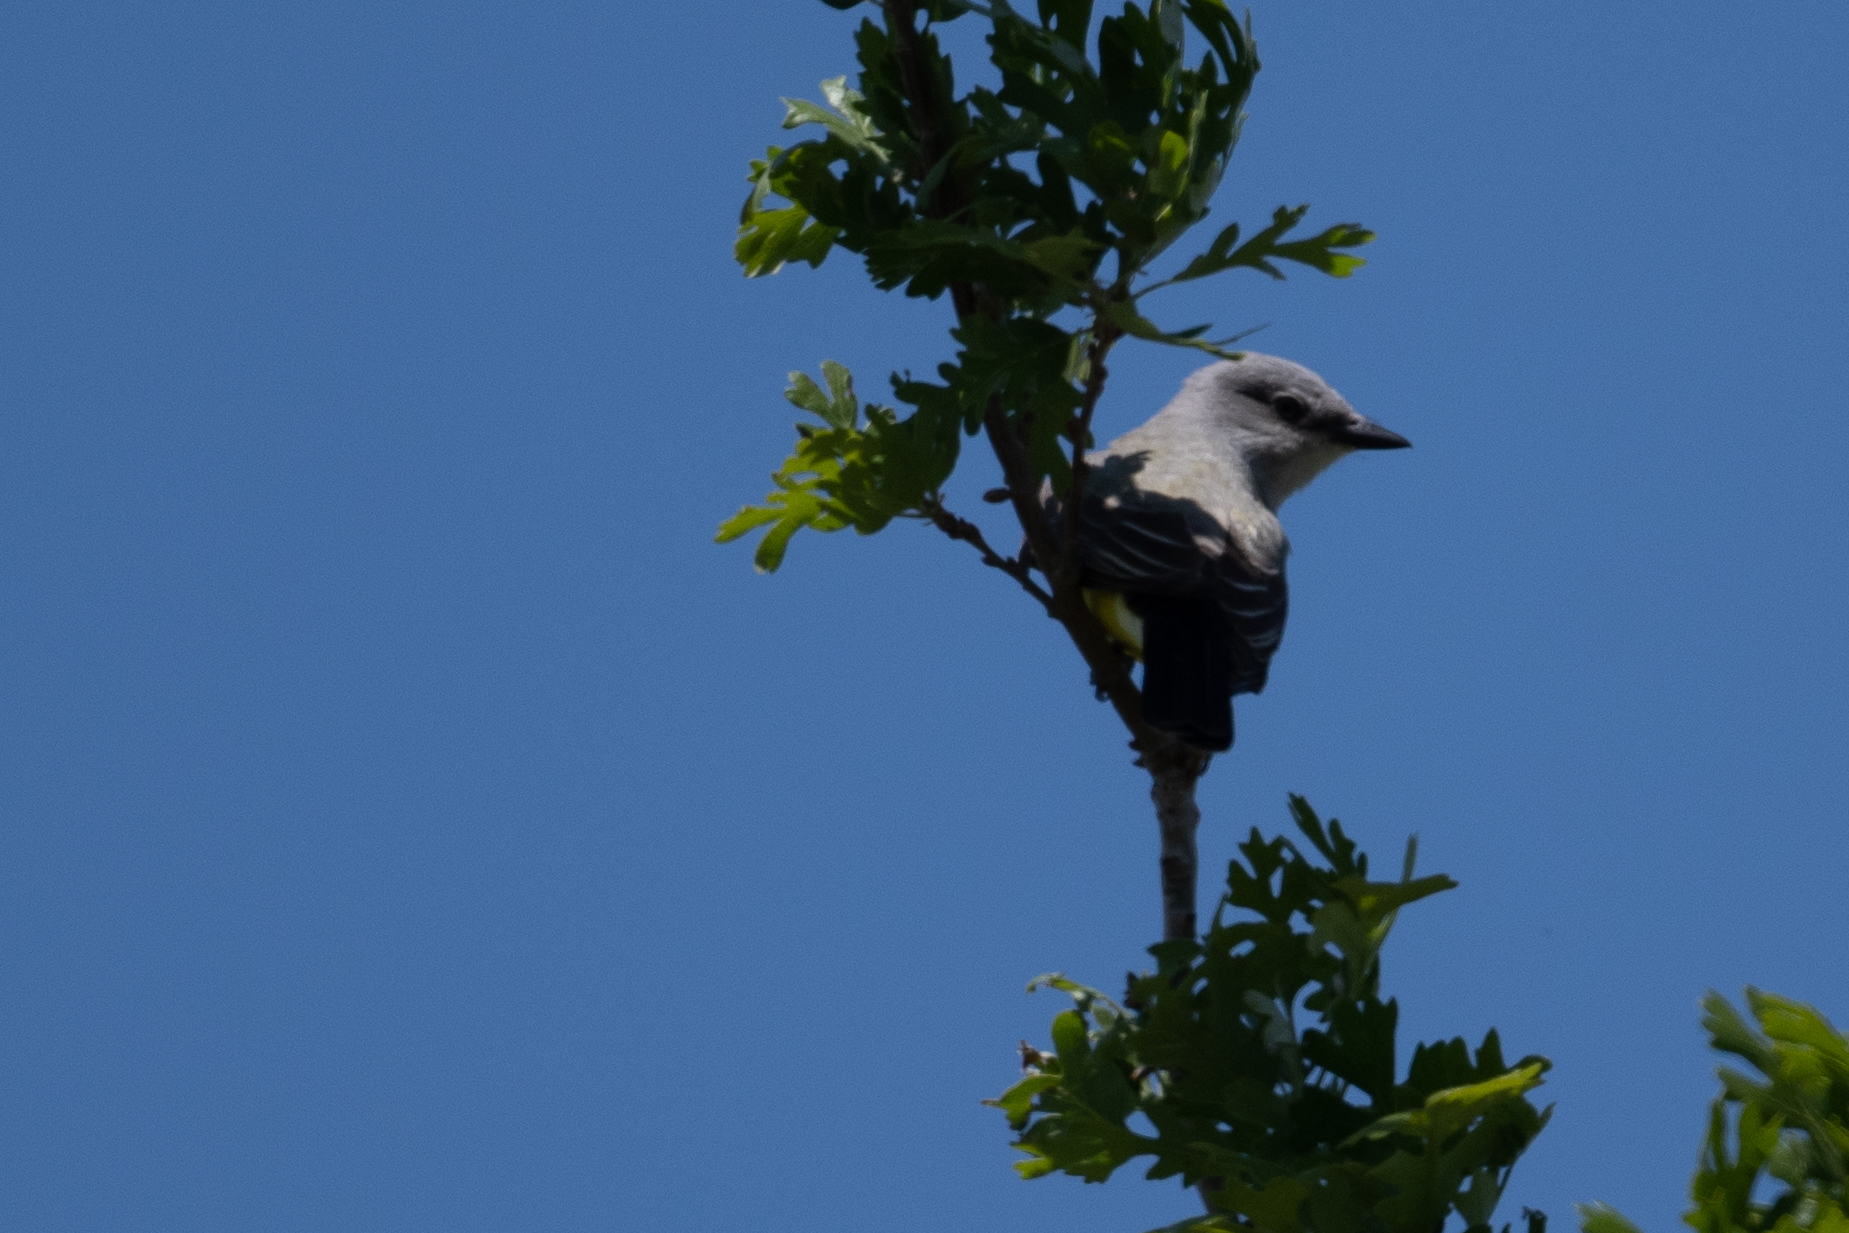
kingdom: Animalia
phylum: Chordata
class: Aves
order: Passeriformes
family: Tyrannidae
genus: Tyrannus
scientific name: Tyrannus verticalis
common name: Western kingbird
